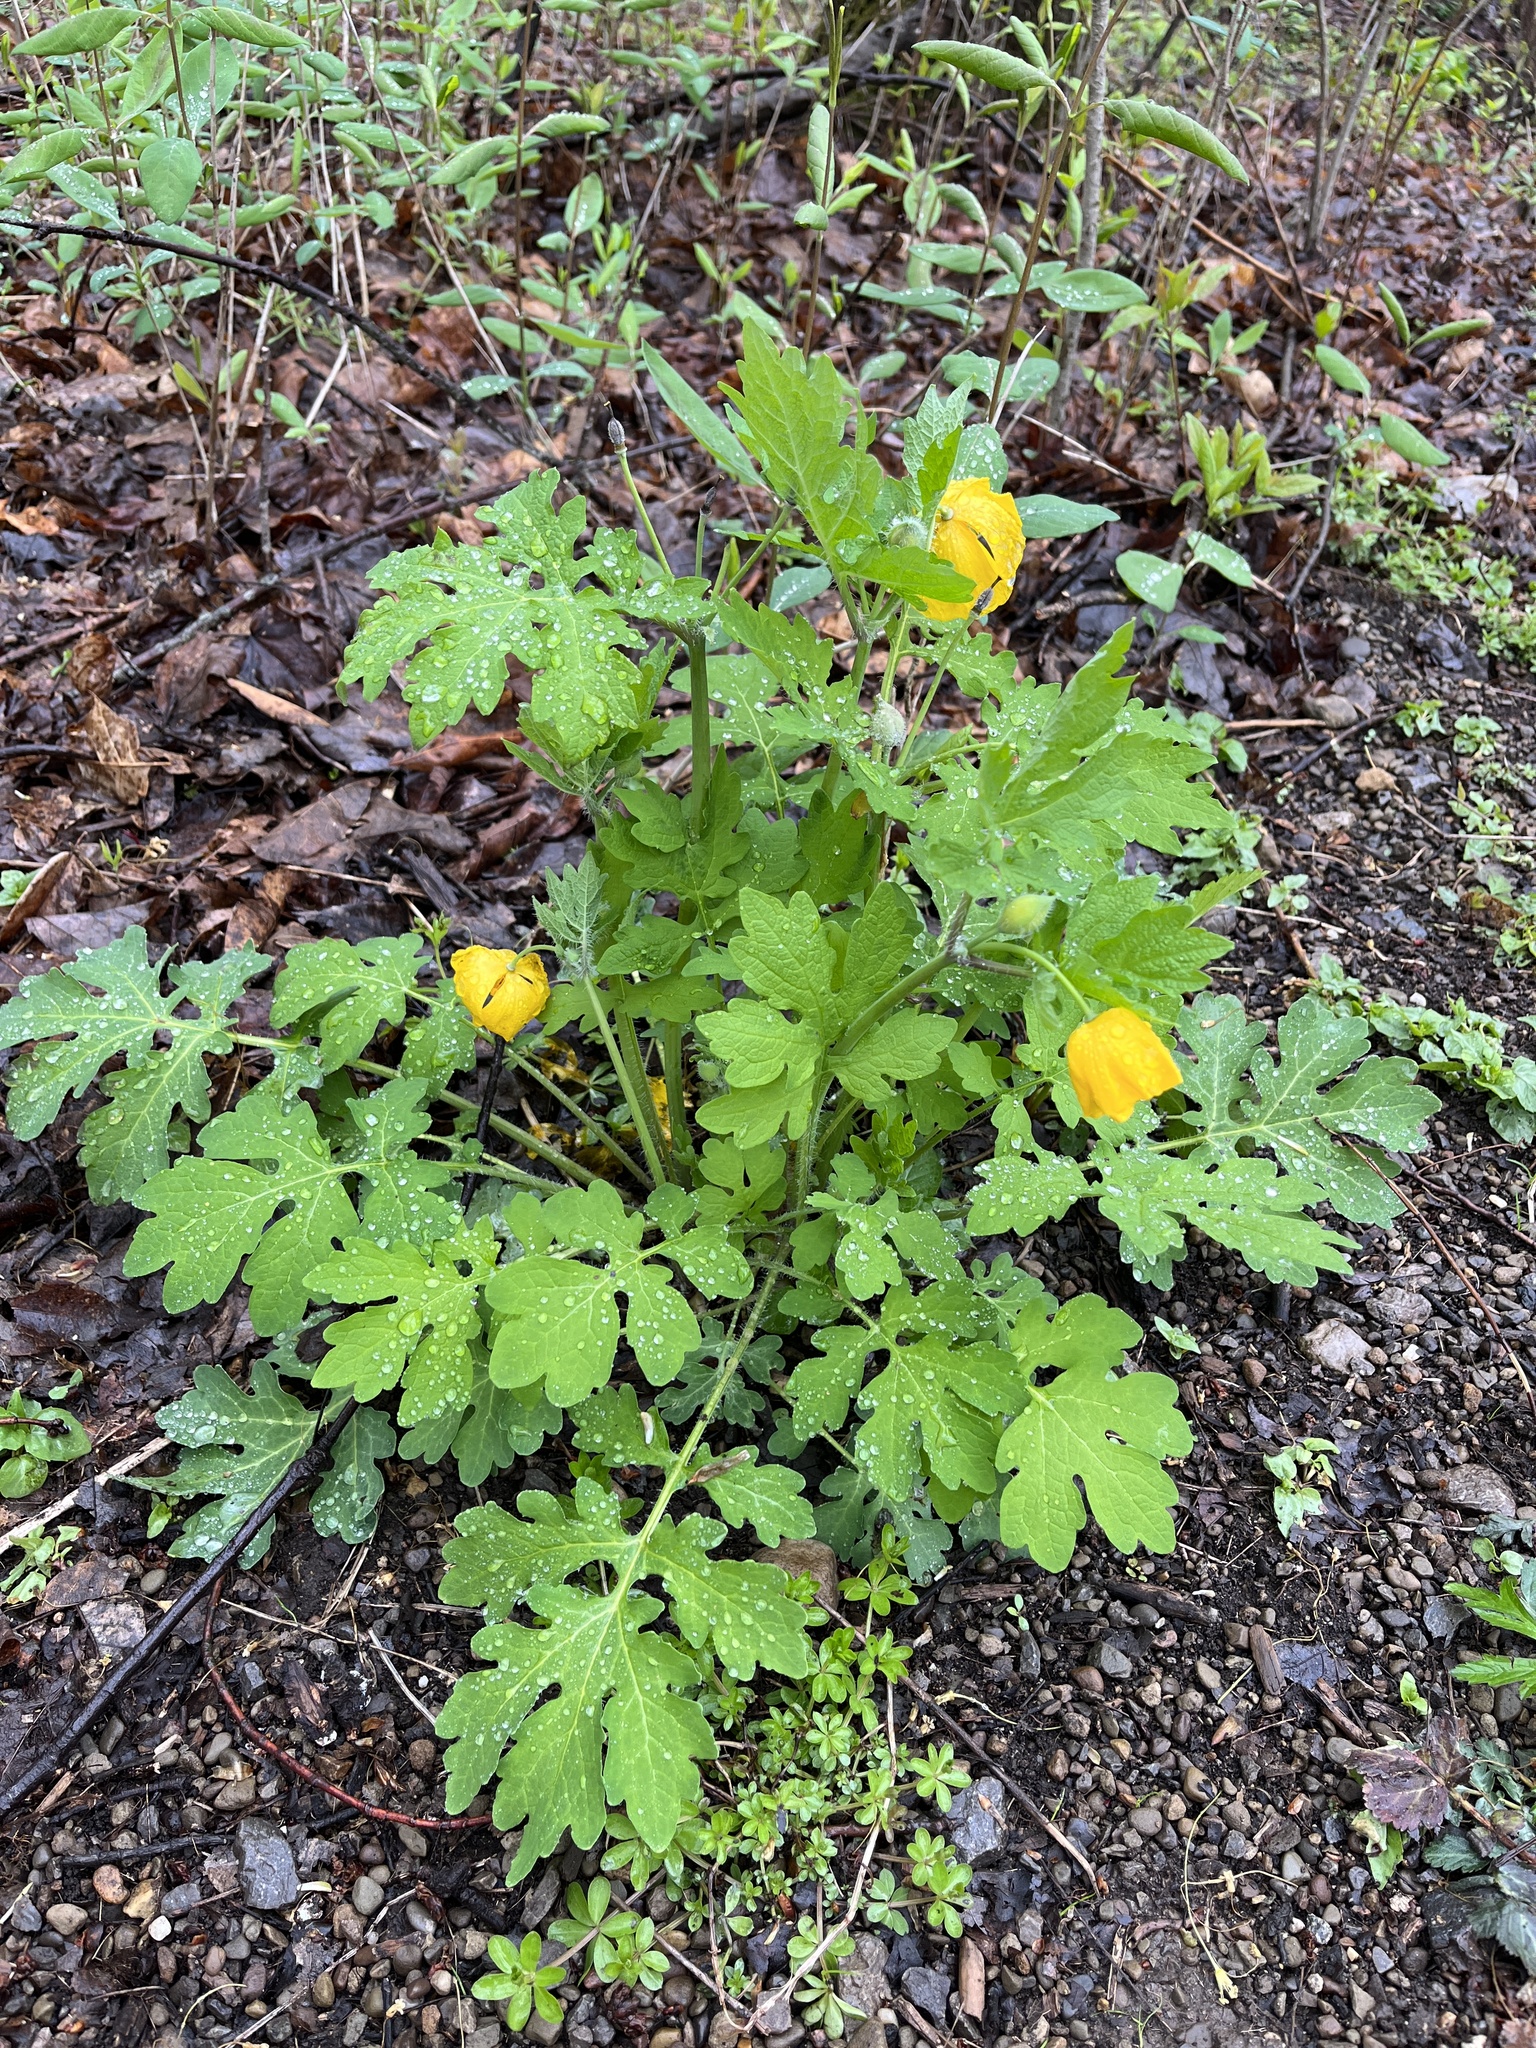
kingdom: Plantae
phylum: Tracheophyta
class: Magnoliopsida
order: Ranunculales
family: Papaveraceae
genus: Stylophorum
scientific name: Stylophorum diphyllum
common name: Celandine poppy
